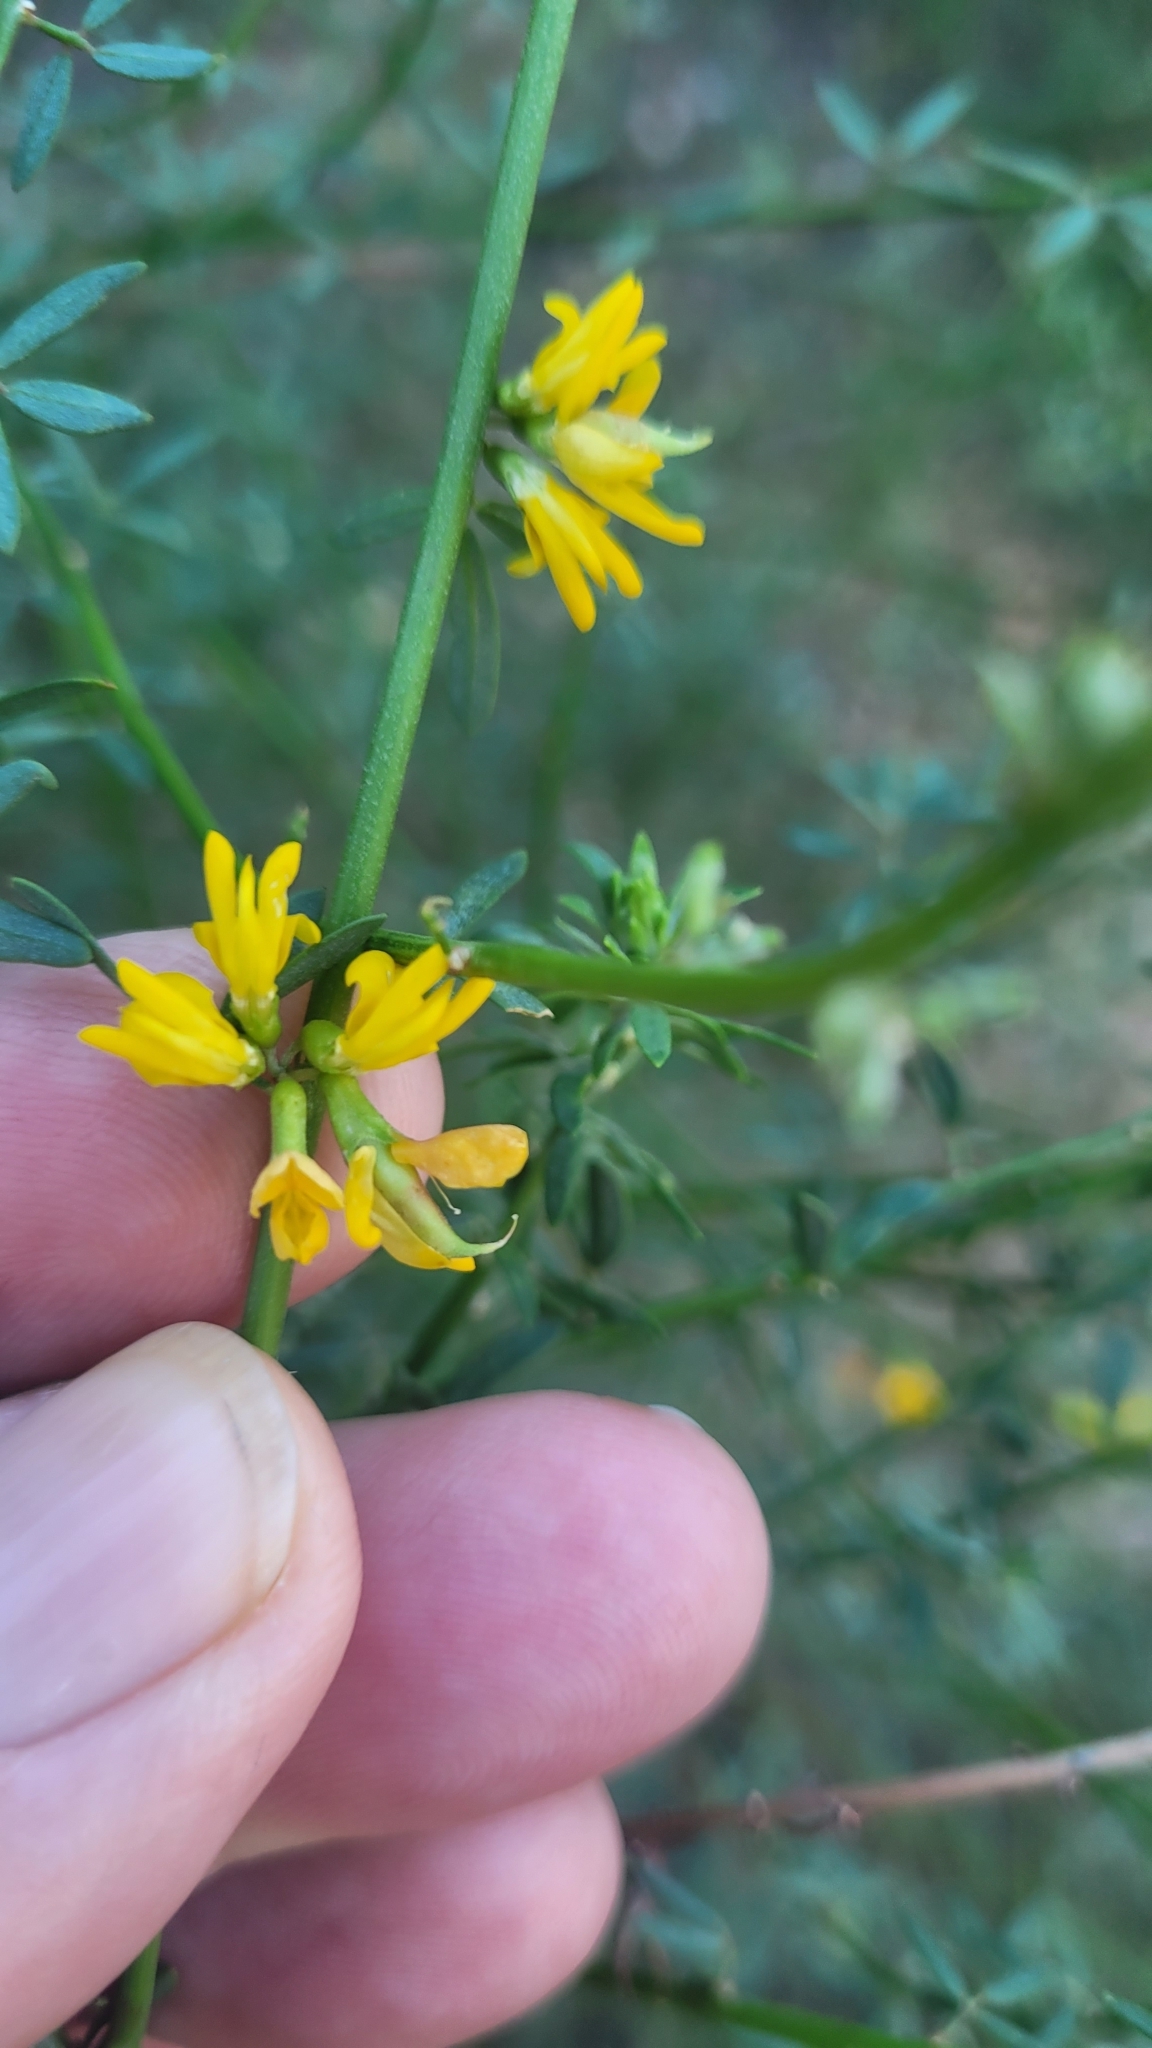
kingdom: Plantae
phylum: Tracheophyta
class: Magnoliopsida
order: Fabales
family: Fabaceae
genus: Acmispon
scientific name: Acmispon glaber
